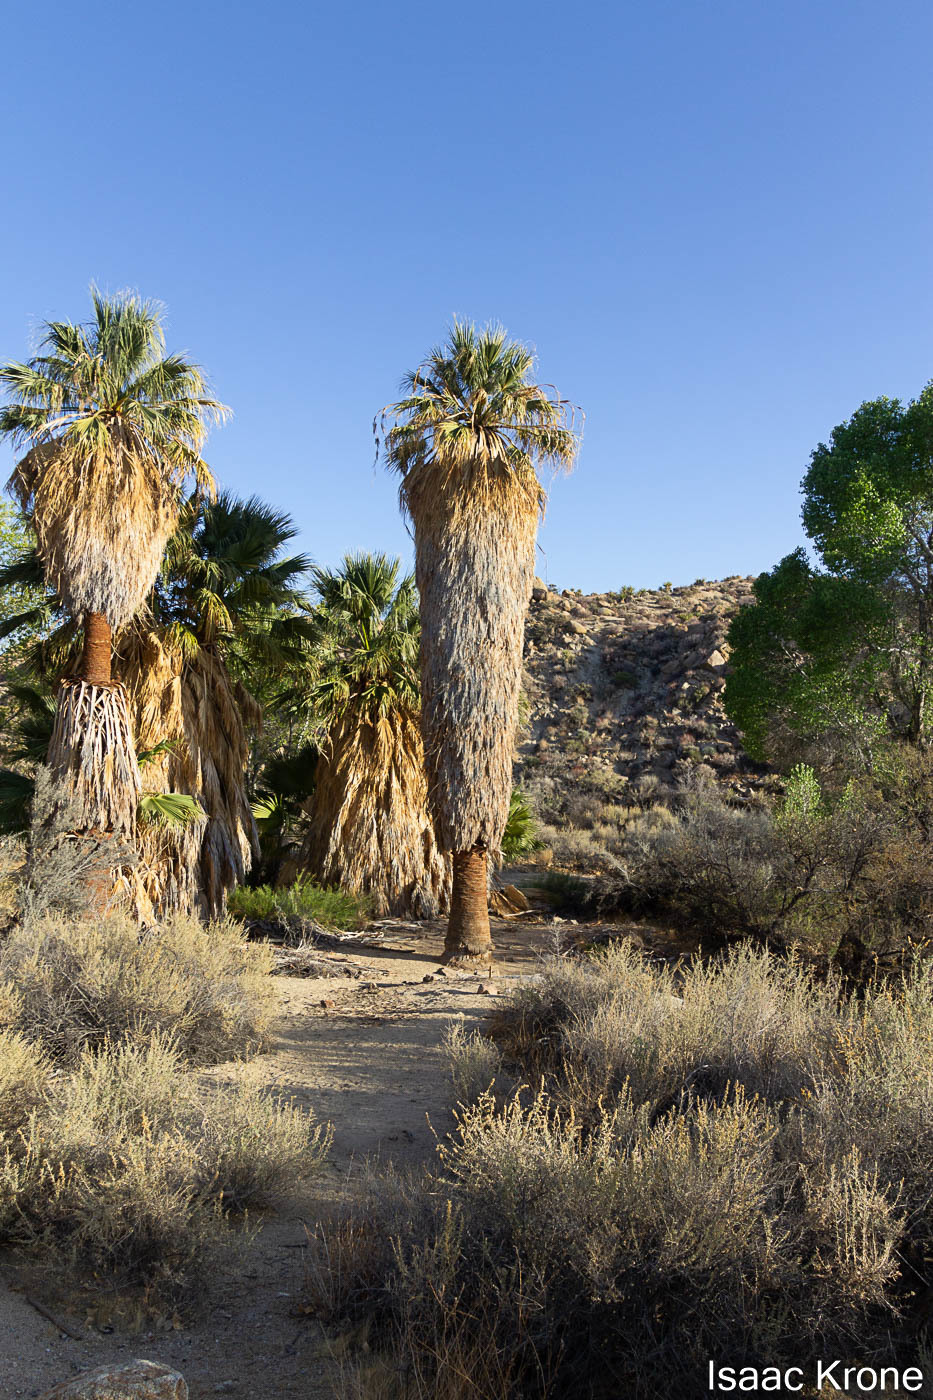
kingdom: Plantae
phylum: Tracheophyta
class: Liliopsida
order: Arecales
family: Arecaceae
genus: Washingtonia
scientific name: Washingtonia filifera
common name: California fan palm
